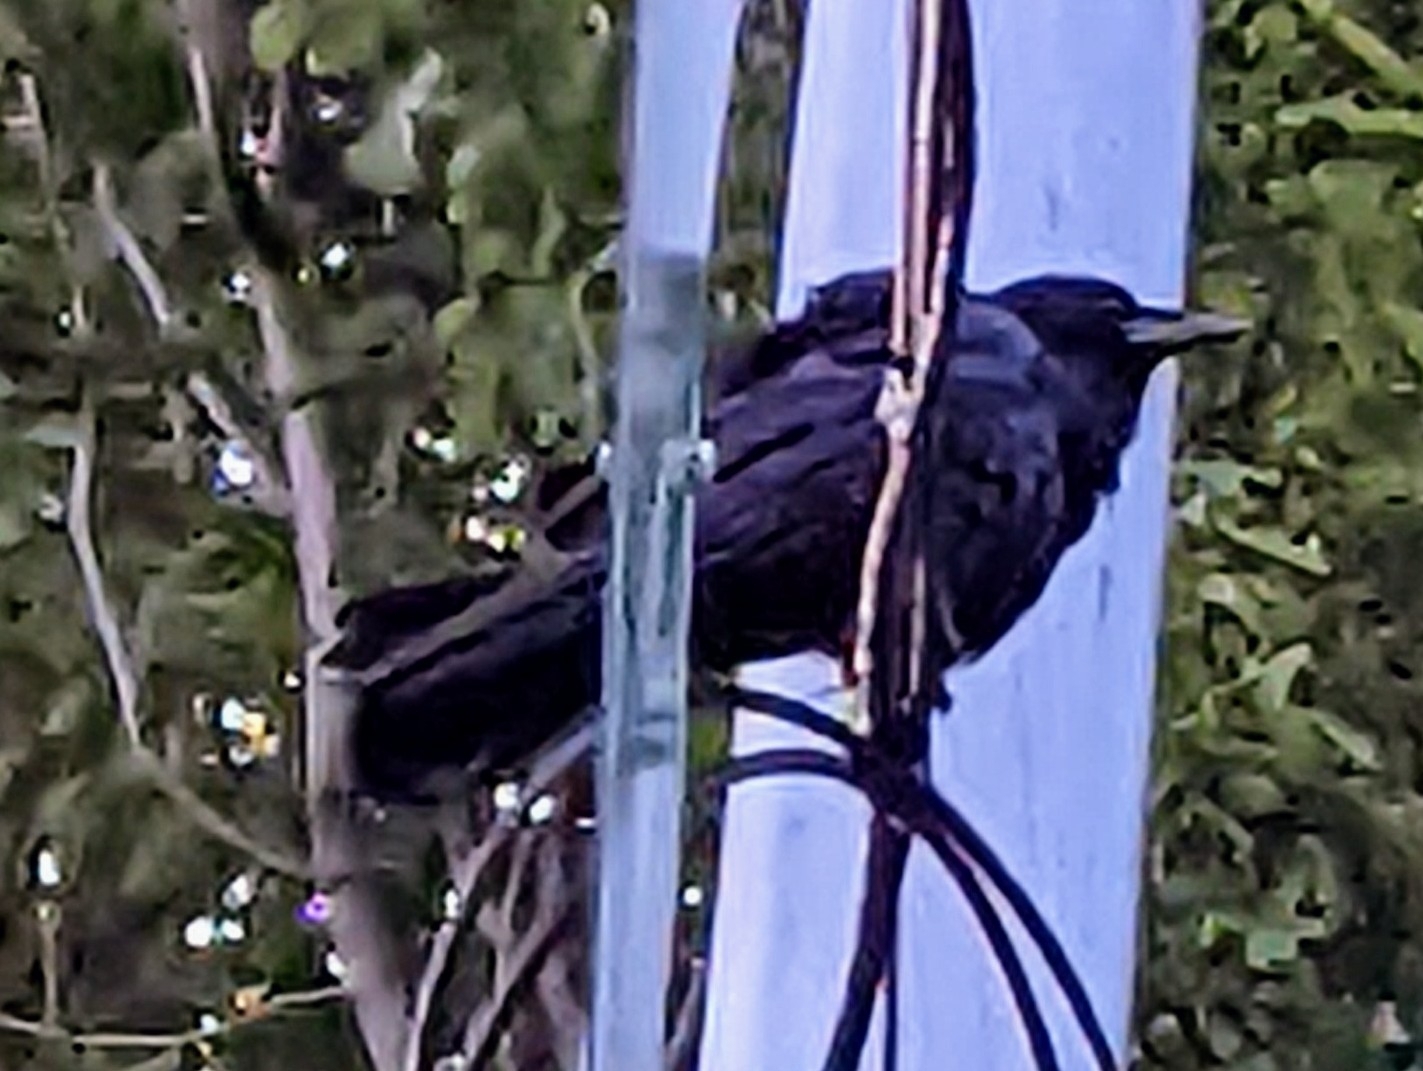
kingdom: Animalia
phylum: Chordata
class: Aves
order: Passeriformes
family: Corvidae
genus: Corvus
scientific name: Corvus brachyrhynchos
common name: American crow
